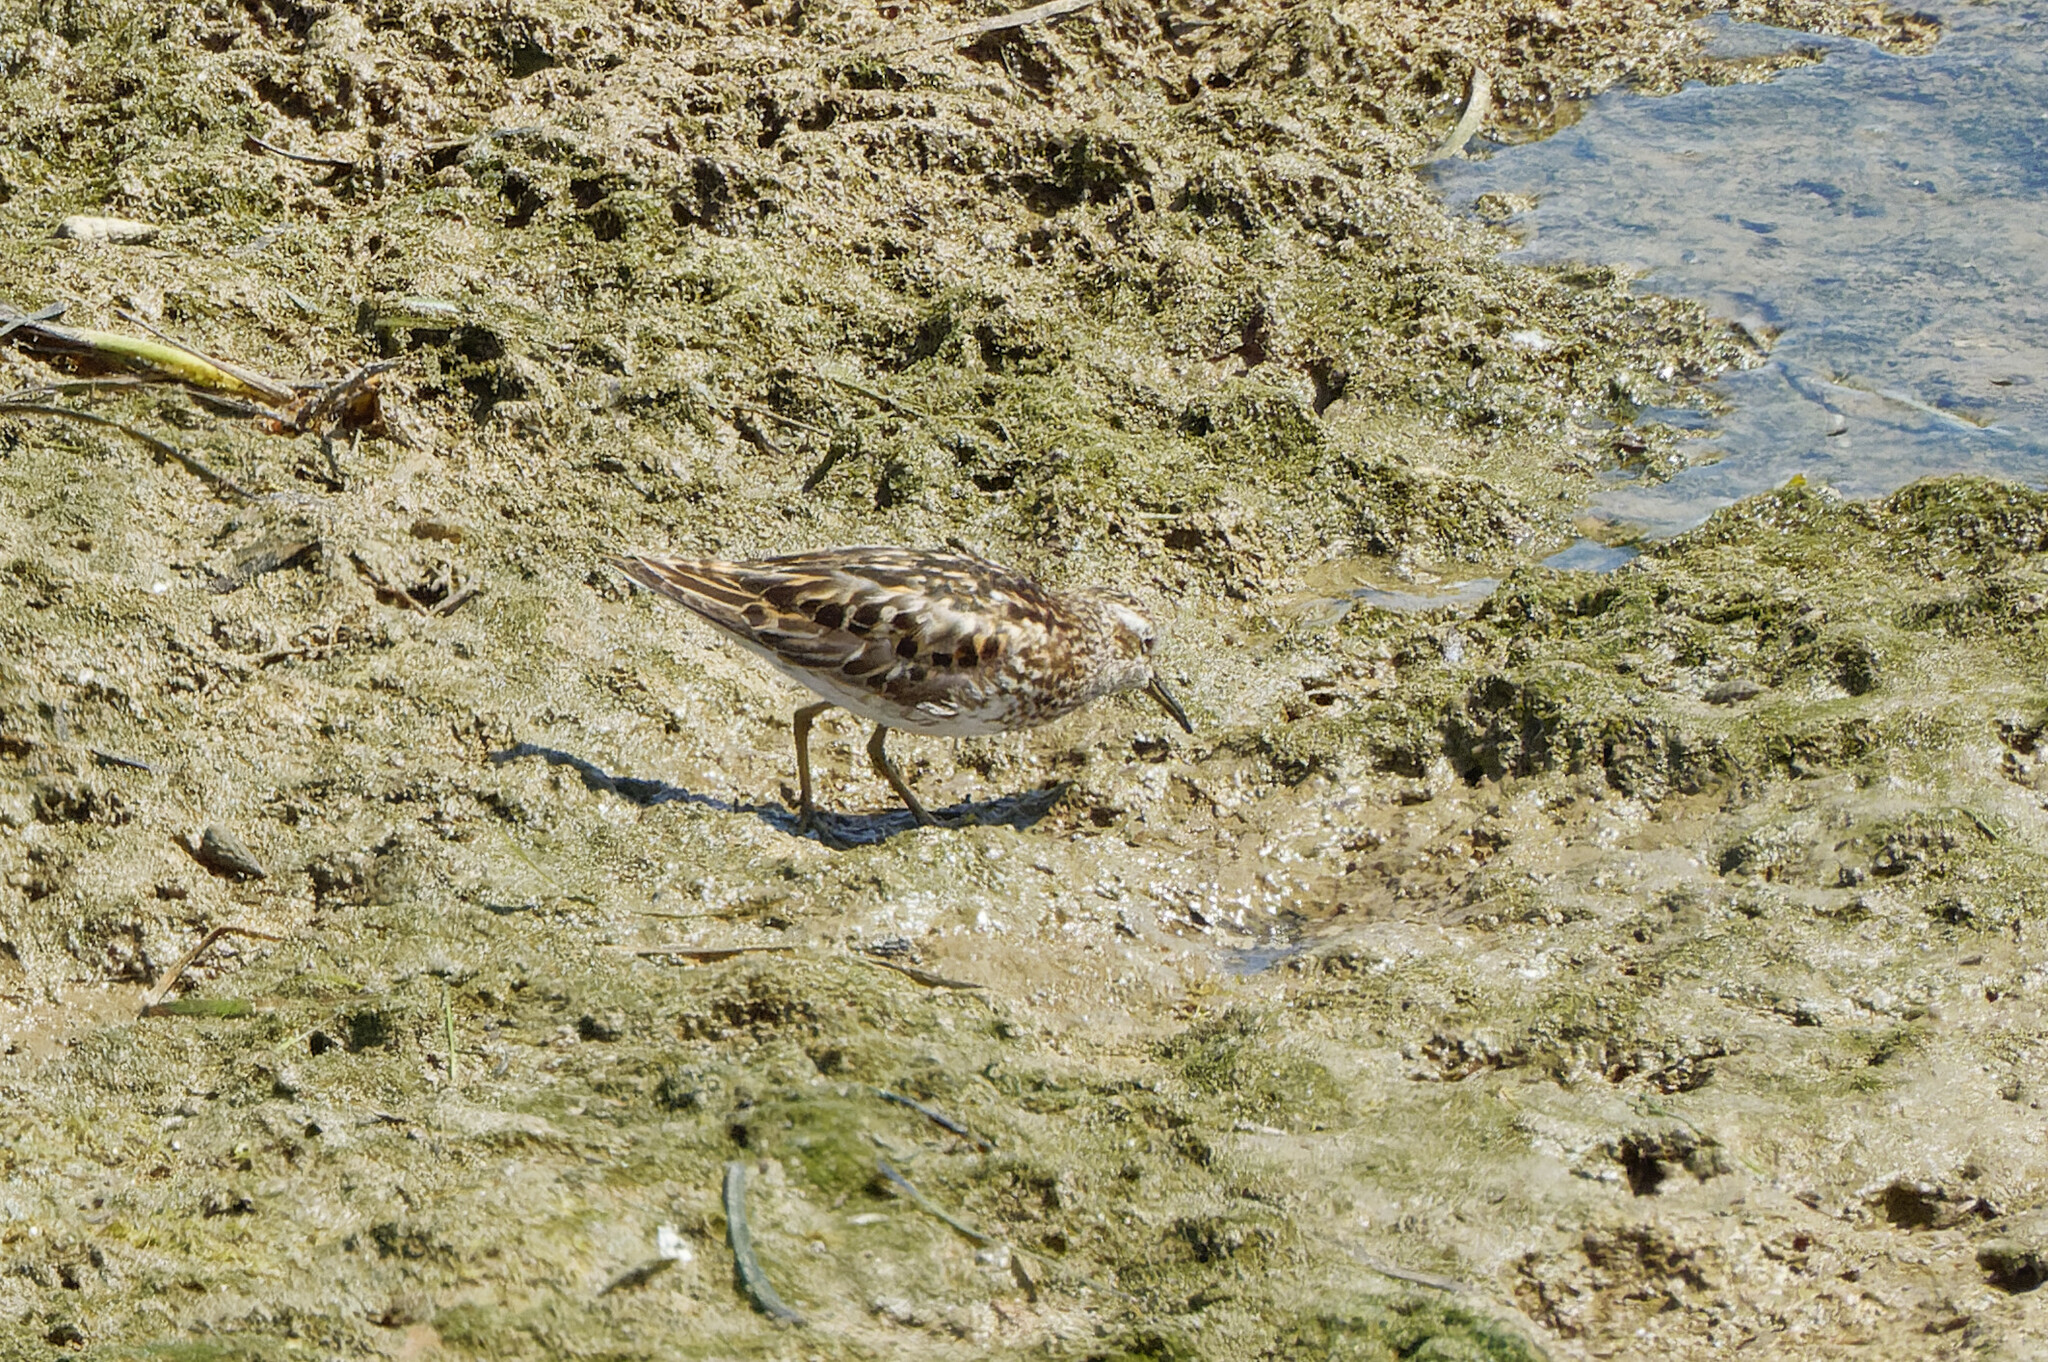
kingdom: Animalia
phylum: Chordata
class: Aves
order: Charadriiformes
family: Scolopacidae
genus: Calidris
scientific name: Calidris minutilla
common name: Least sandpiper
